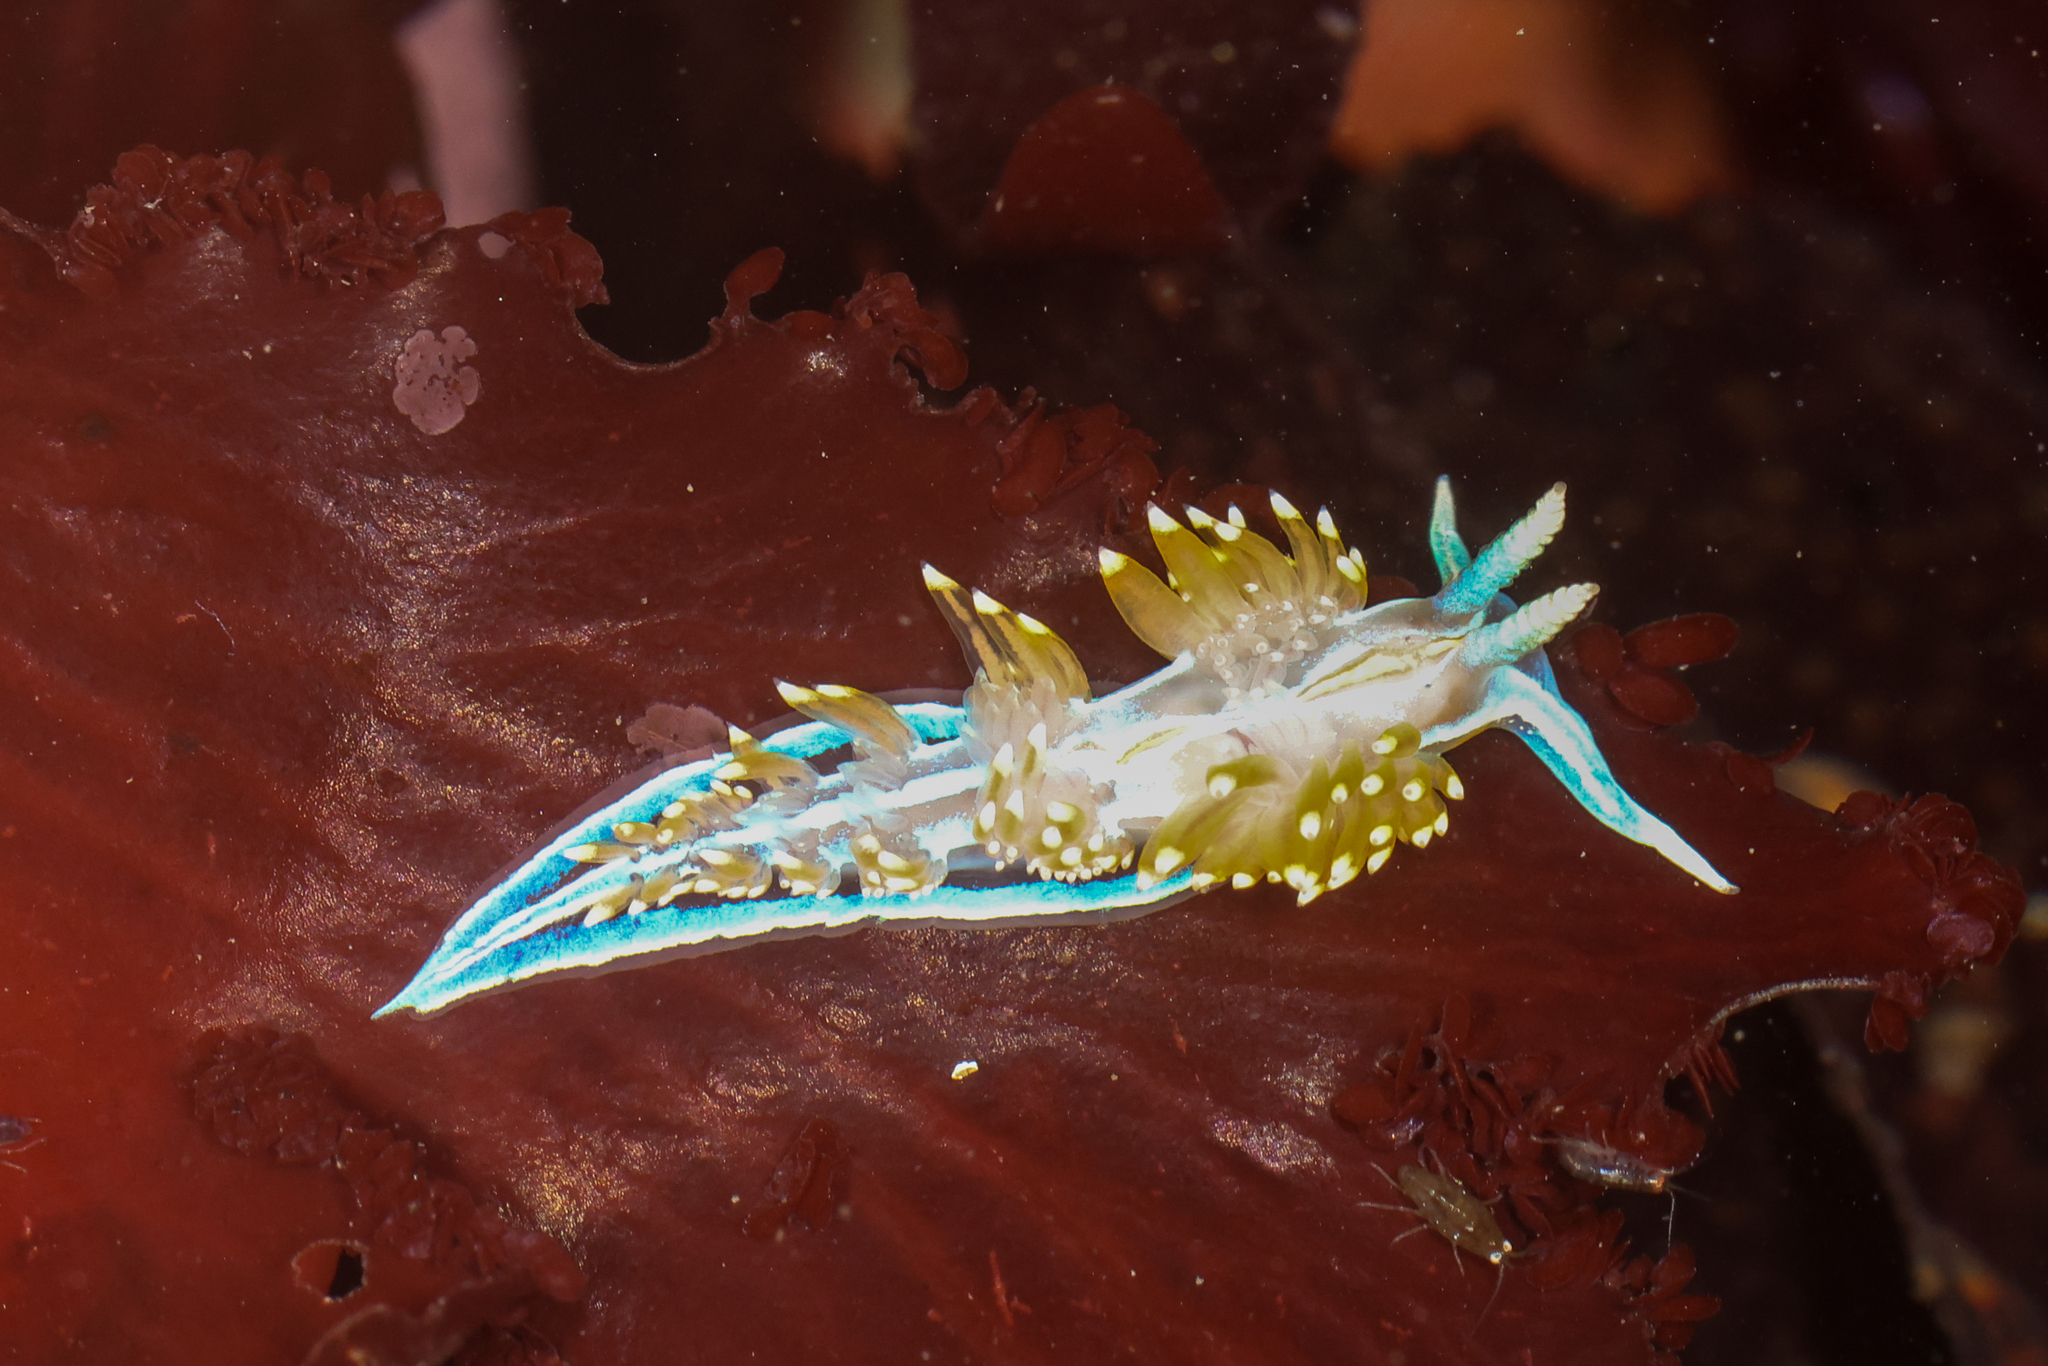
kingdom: Animalia
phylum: Mollusca
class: Gastropoda
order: Nudibranchia
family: Myrrhinidae
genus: Hermissenda
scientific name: Hermissenda opalescens
